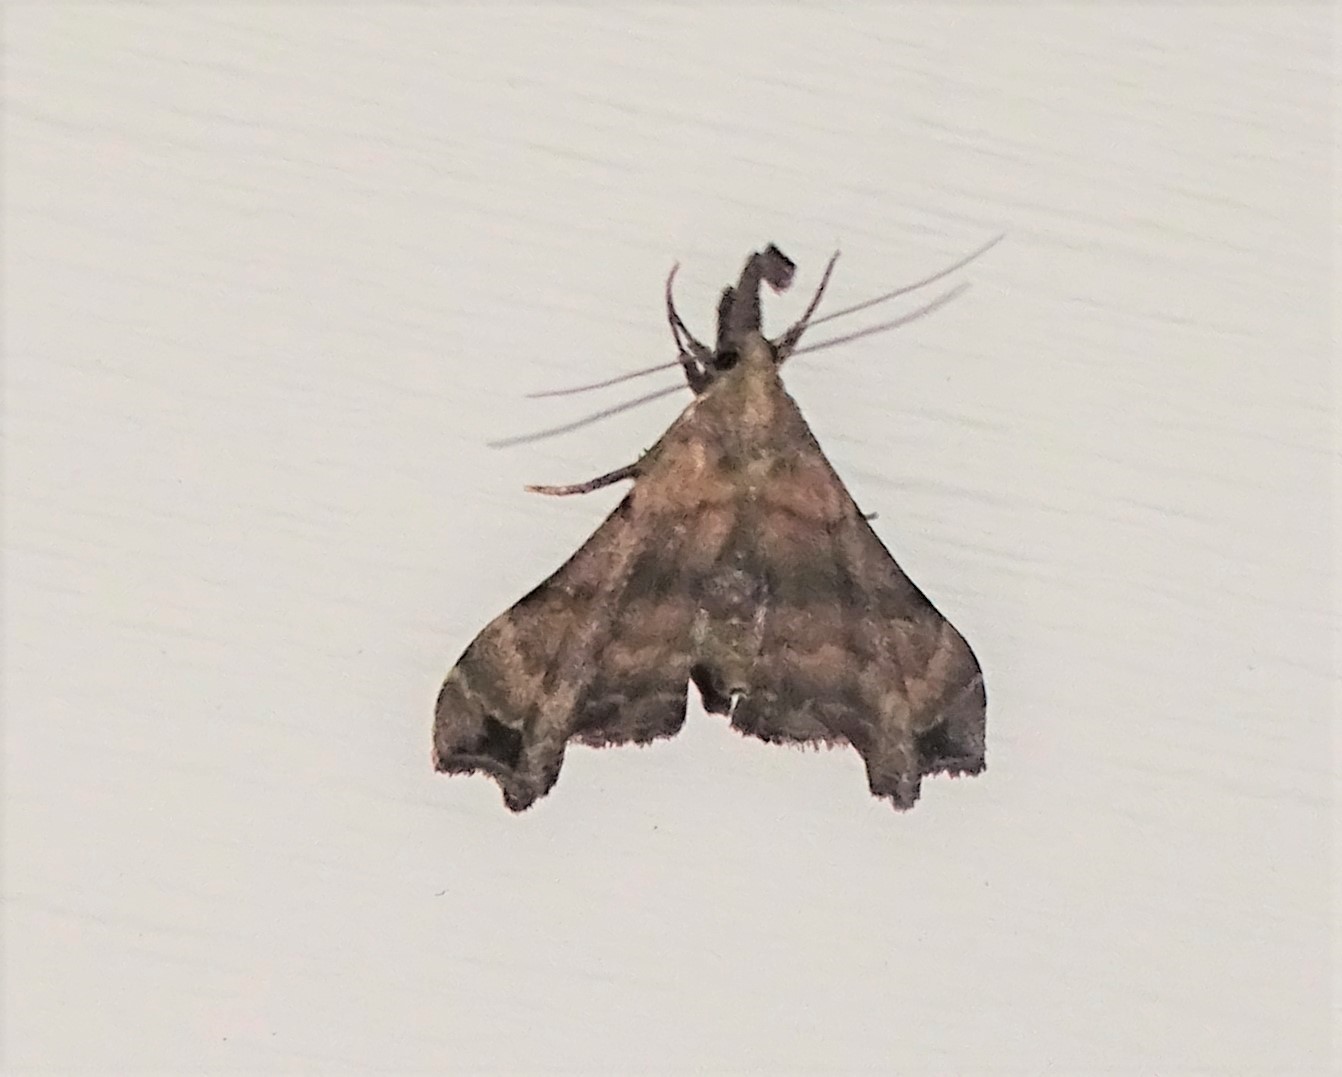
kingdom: Animalia
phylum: Arthropoda
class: Insecta
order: Lepidoptera
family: Erebidae
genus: Palthis
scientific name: Palthis asopialis
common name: Faint-spotted palthis moth
